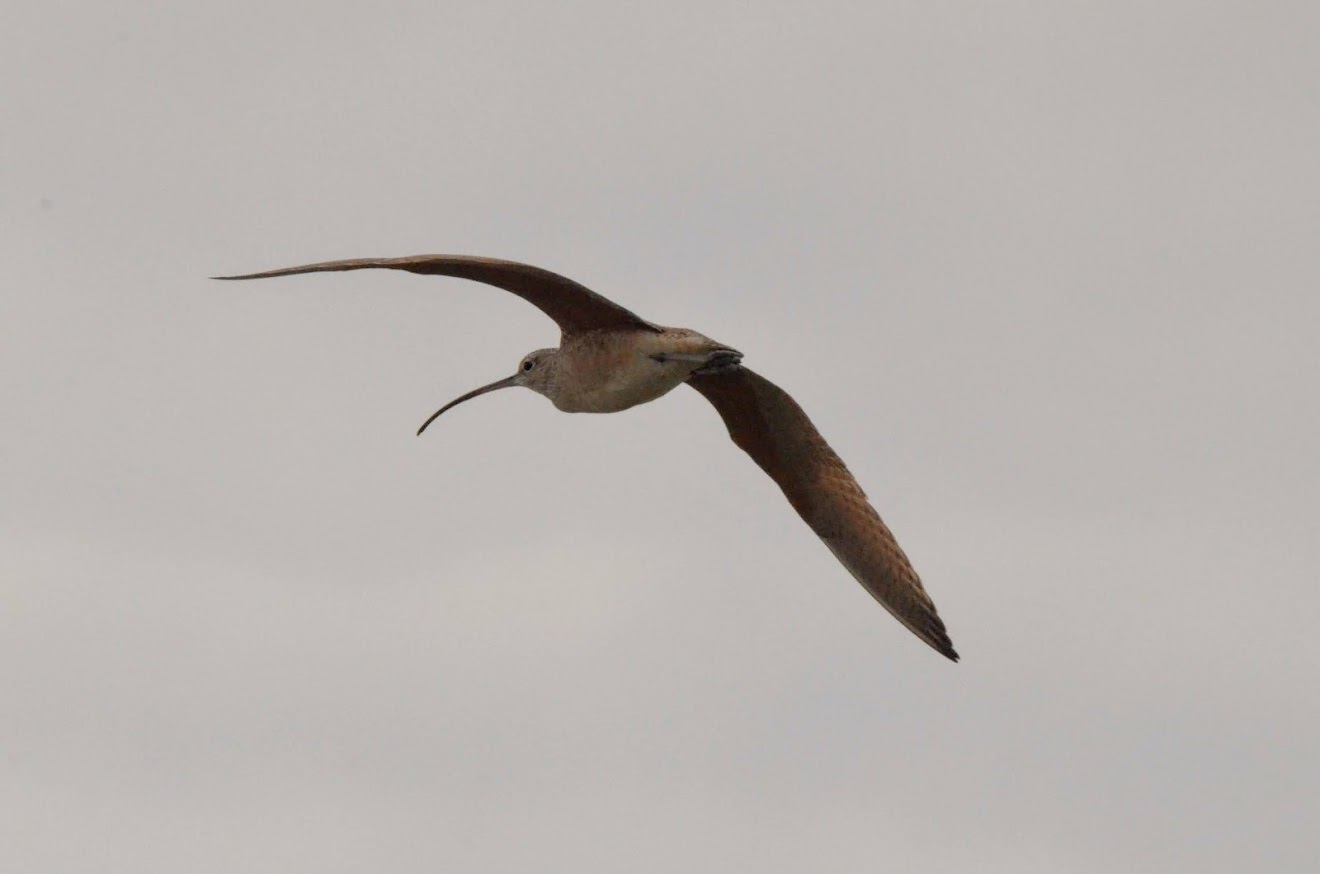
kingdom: Animalia
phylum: Chordata
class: Aves
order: Charadriiformes
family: Scolopacidae
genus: Numenius
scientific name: Numenius americanus
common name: Long-billed curlew
